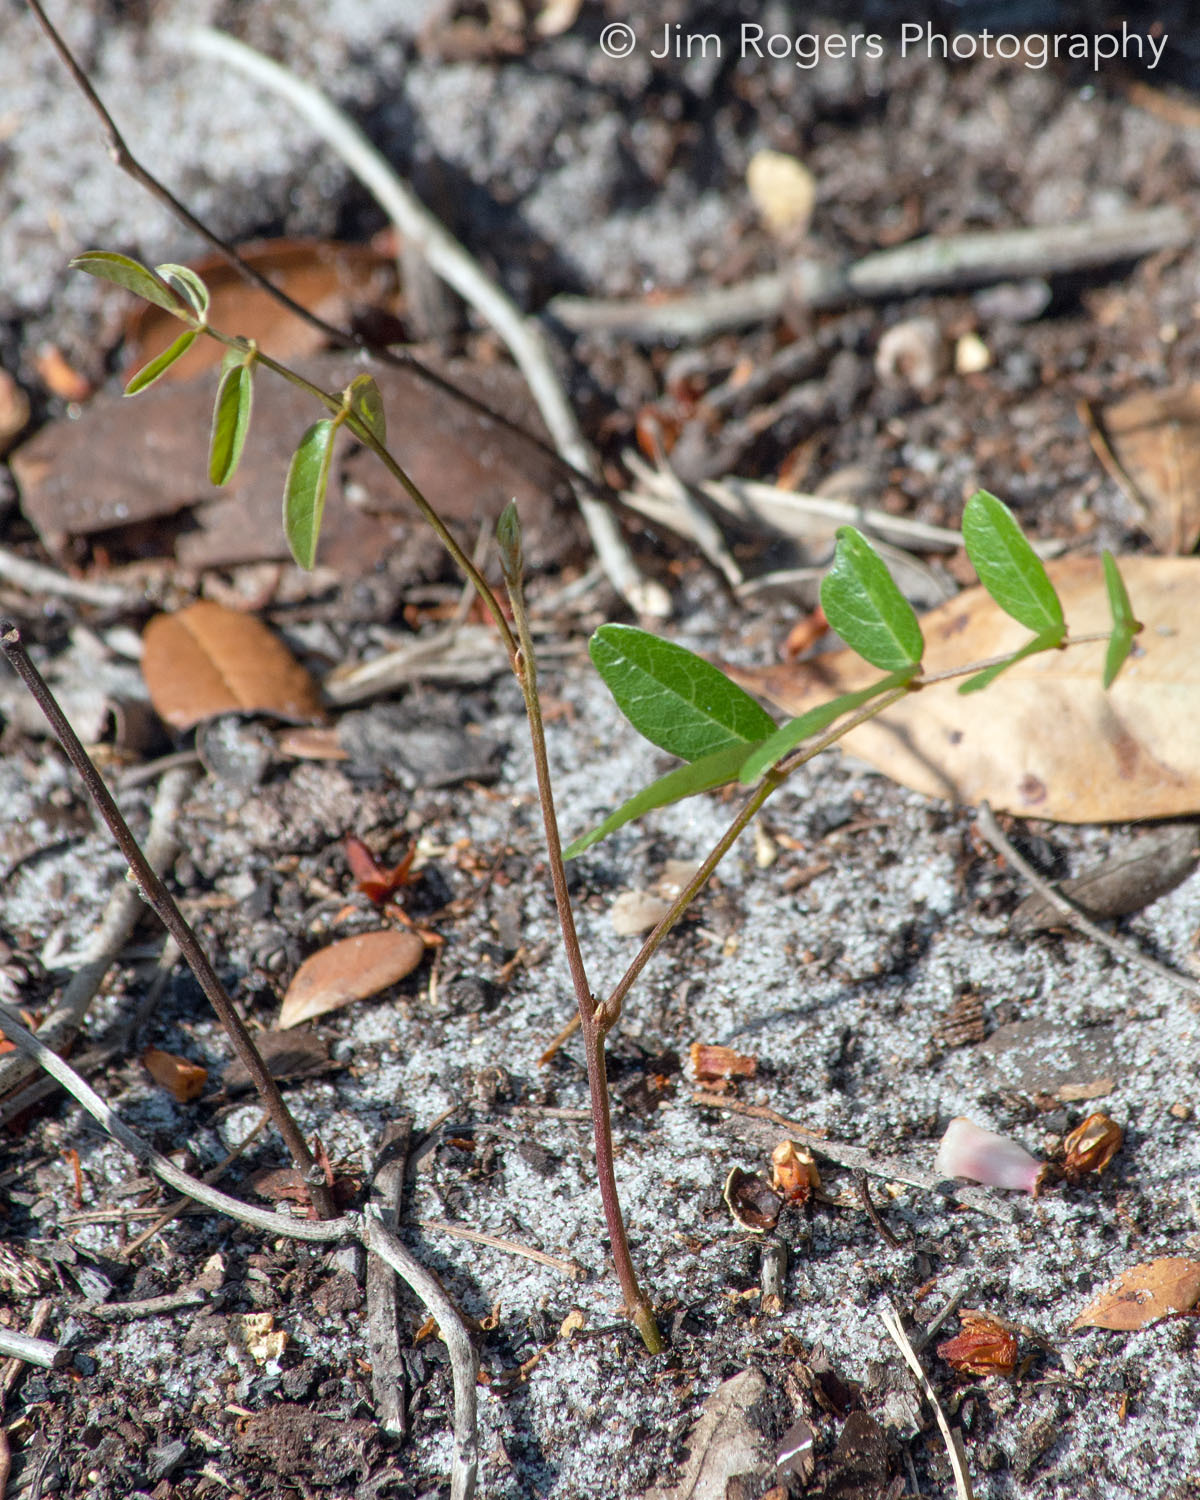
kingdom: Plantae
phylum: Tracheophyta
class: Magnoliopsida
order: Fabales
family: Fabaceae
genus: Galactia
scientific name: Galactia elliottii
